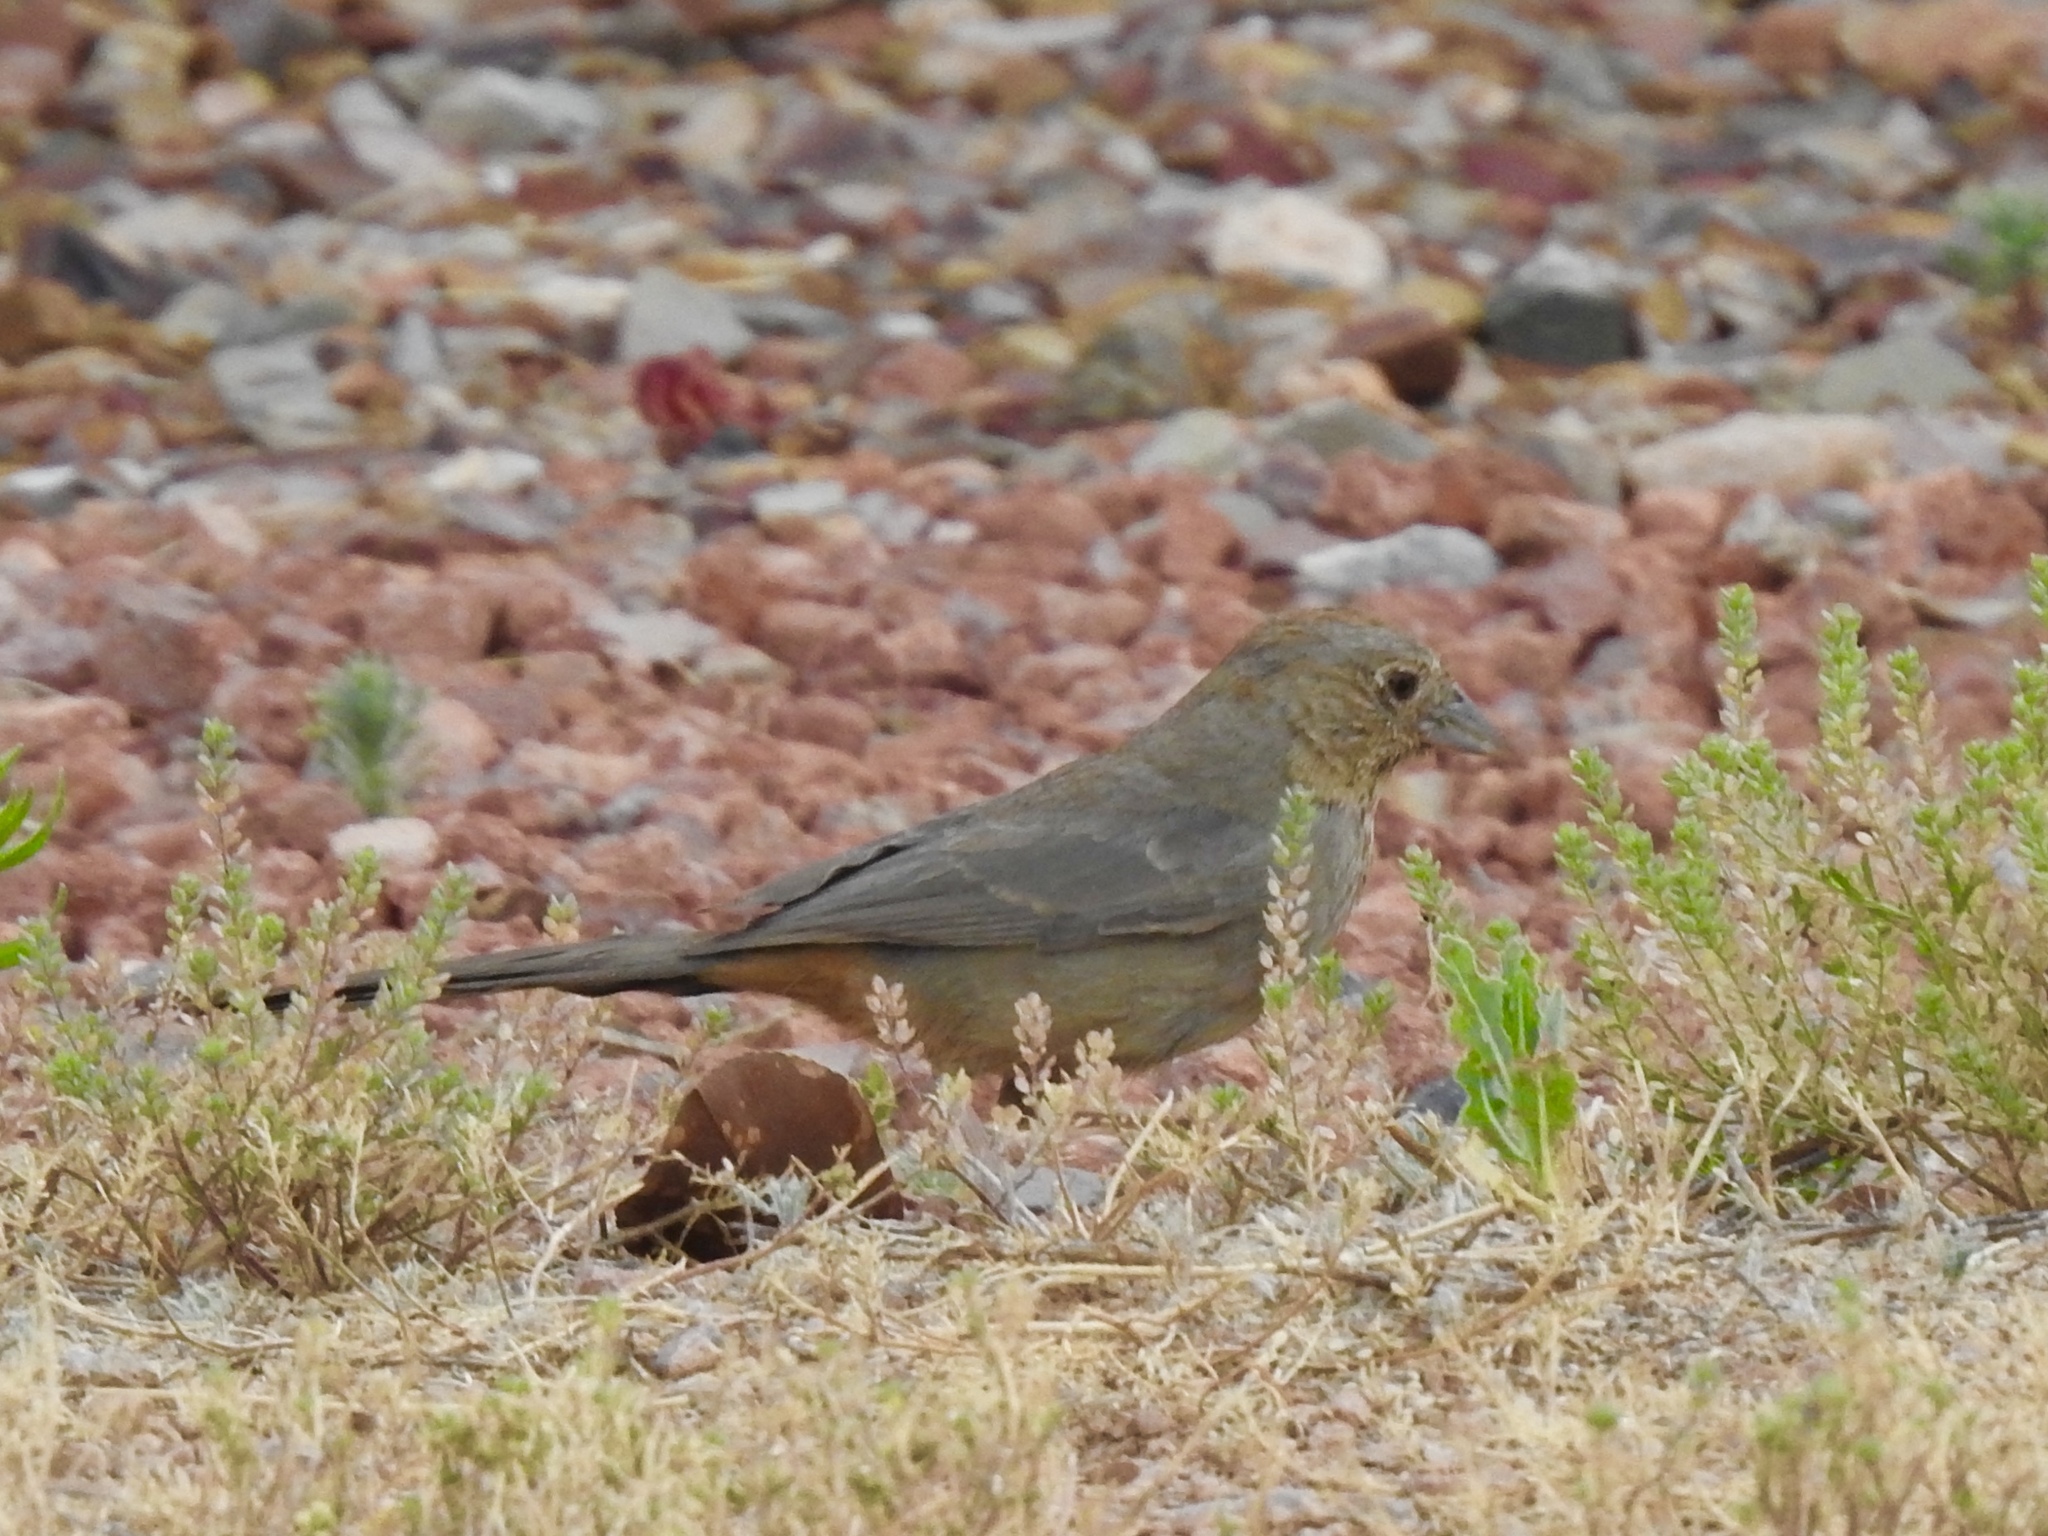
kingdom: Animalia
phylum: Chordata
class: Aves
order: Passeriformes
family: Passerellidae
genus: Melozone
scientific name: Melozone fusca
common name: Canyon towhee
